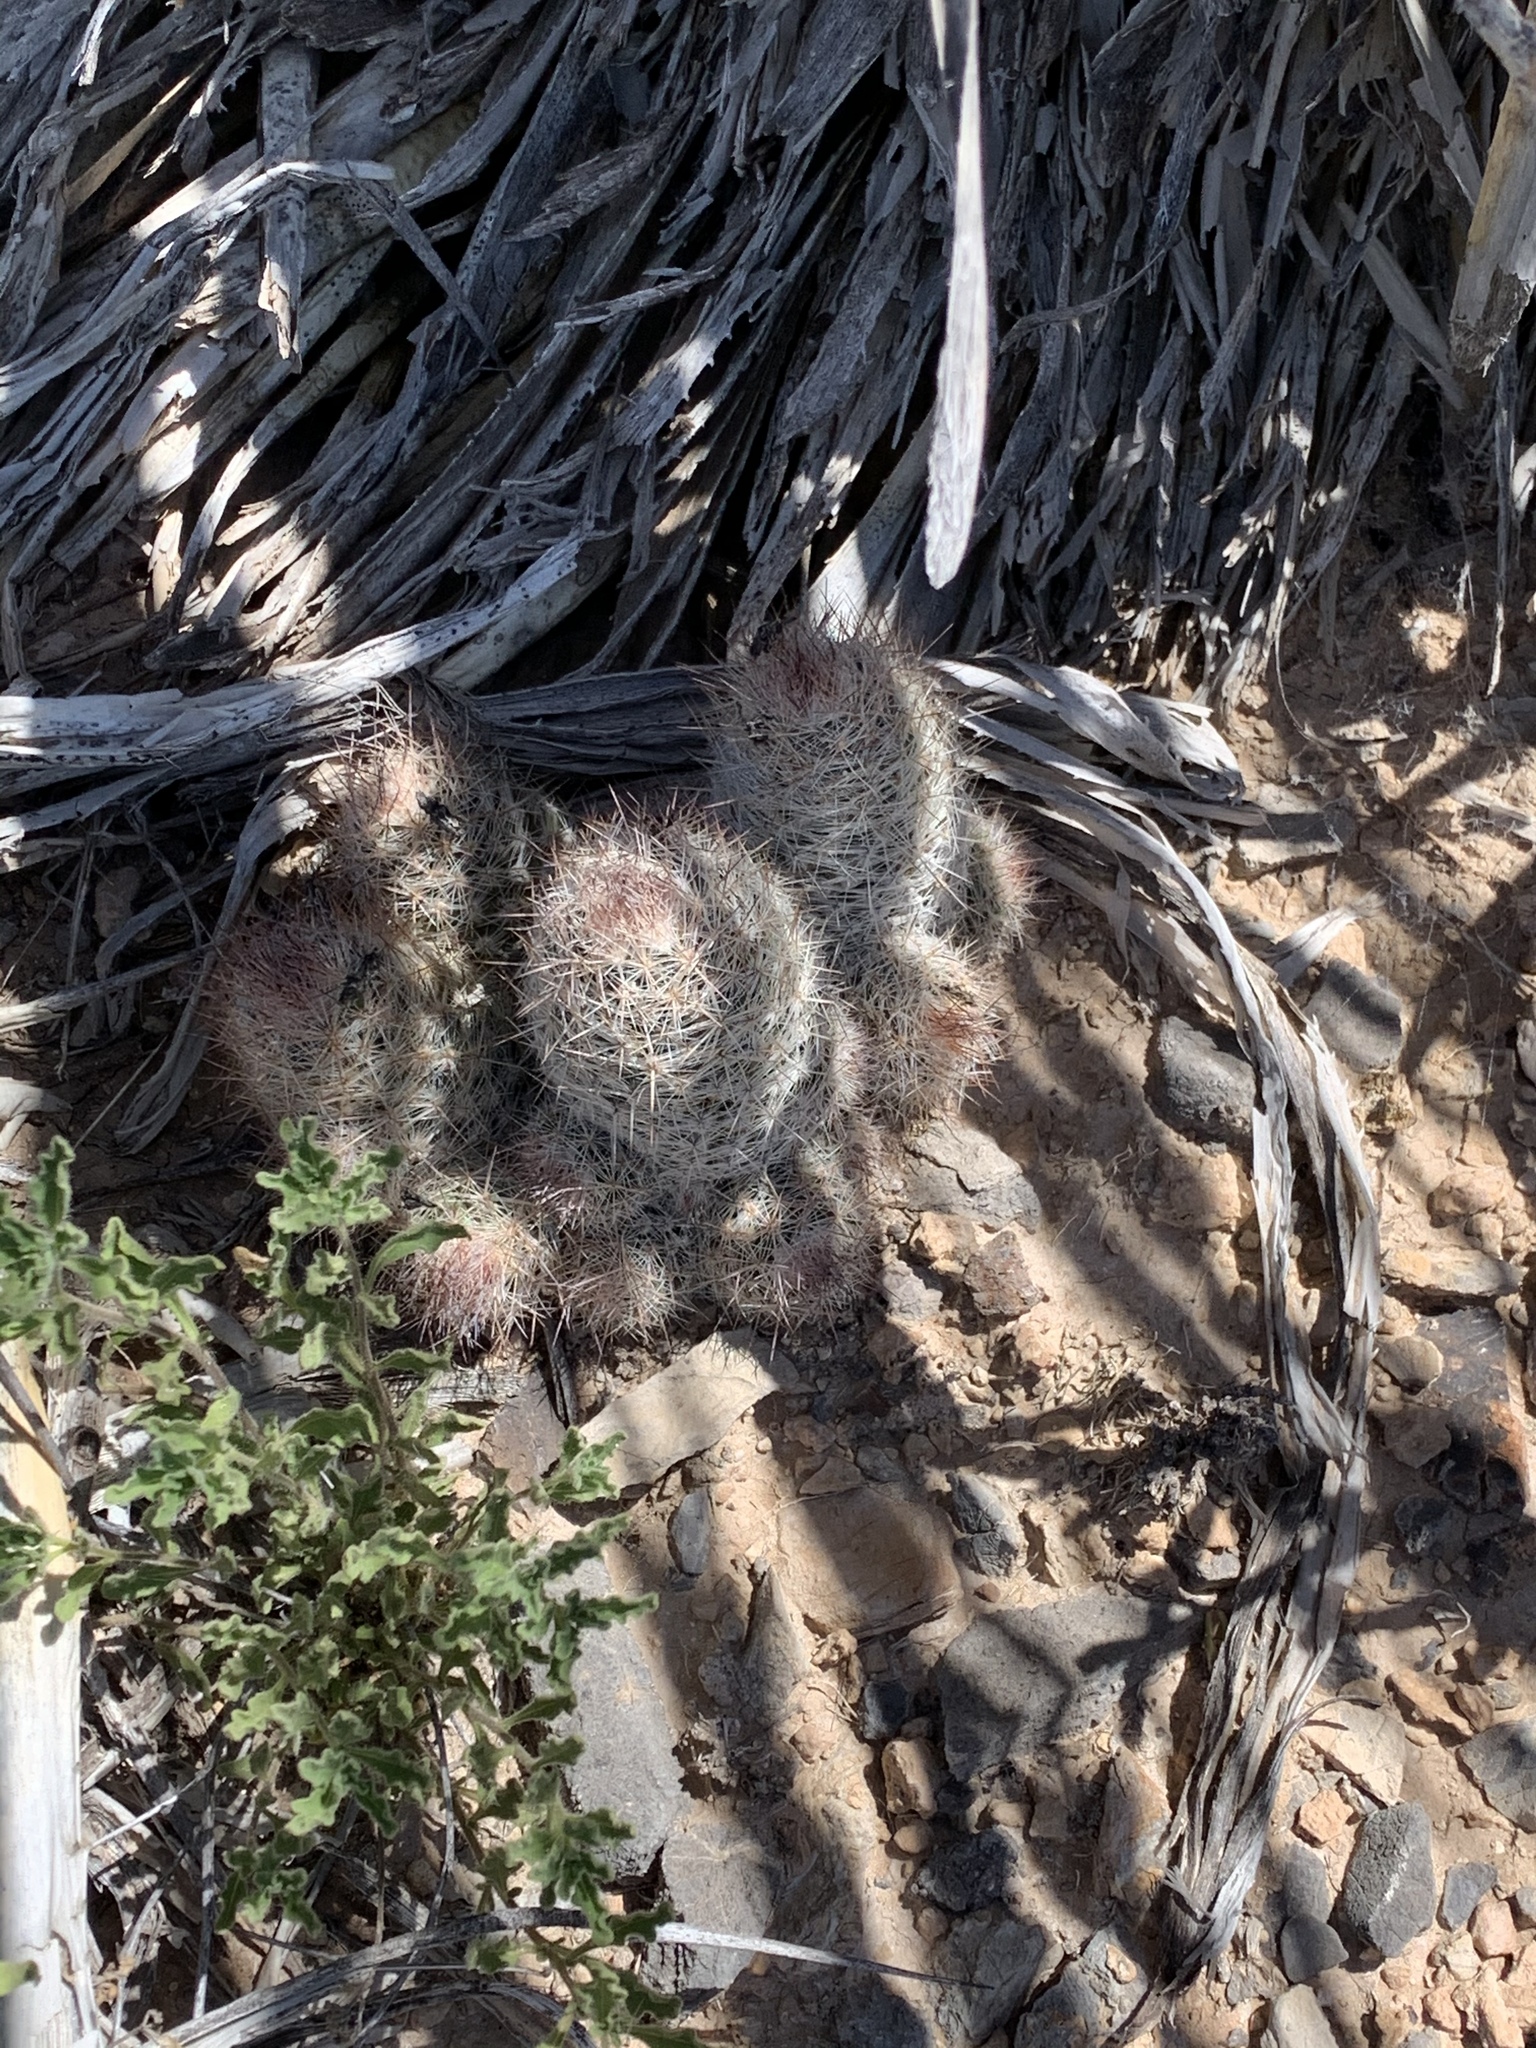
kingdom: Plantae
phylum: Tracheophyta
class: Magnoliopsida
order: Caryophyllales
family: Cactaceae
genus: Pelecyphora
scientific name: Pelecyphora tuberculosa
